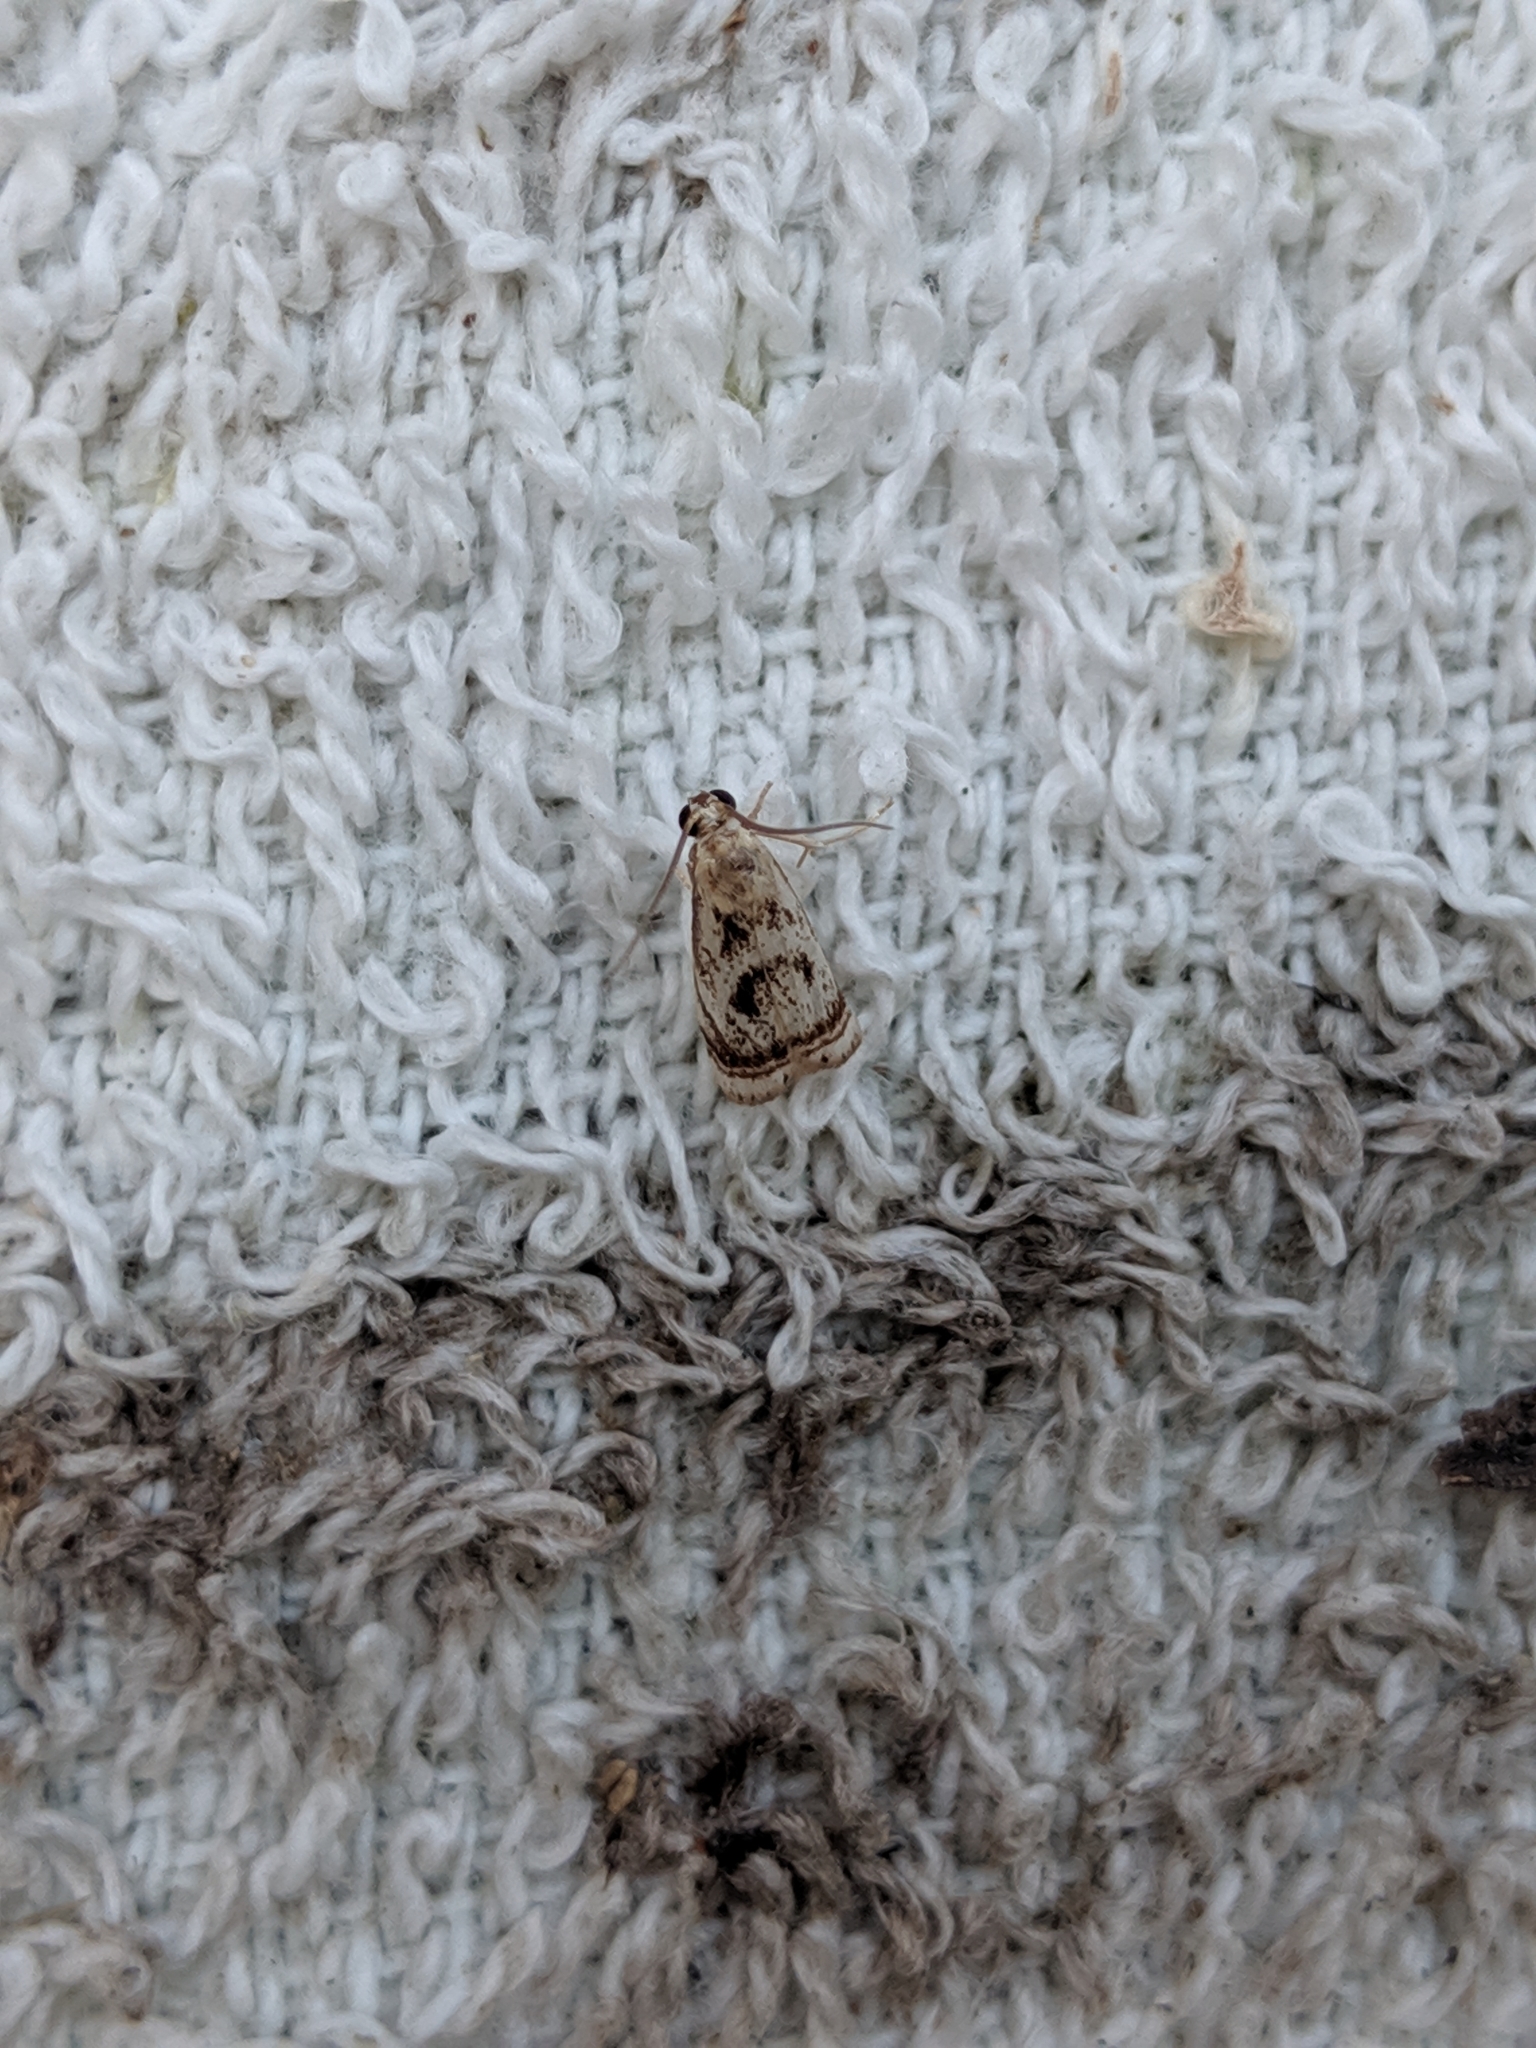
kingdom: Animalia
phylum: Arthropoda
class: Insecta
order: Lepidoptera
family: Crambidae
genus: Microcrambus
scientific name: Microcrambus elegans
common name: Elegant grass-veneer
